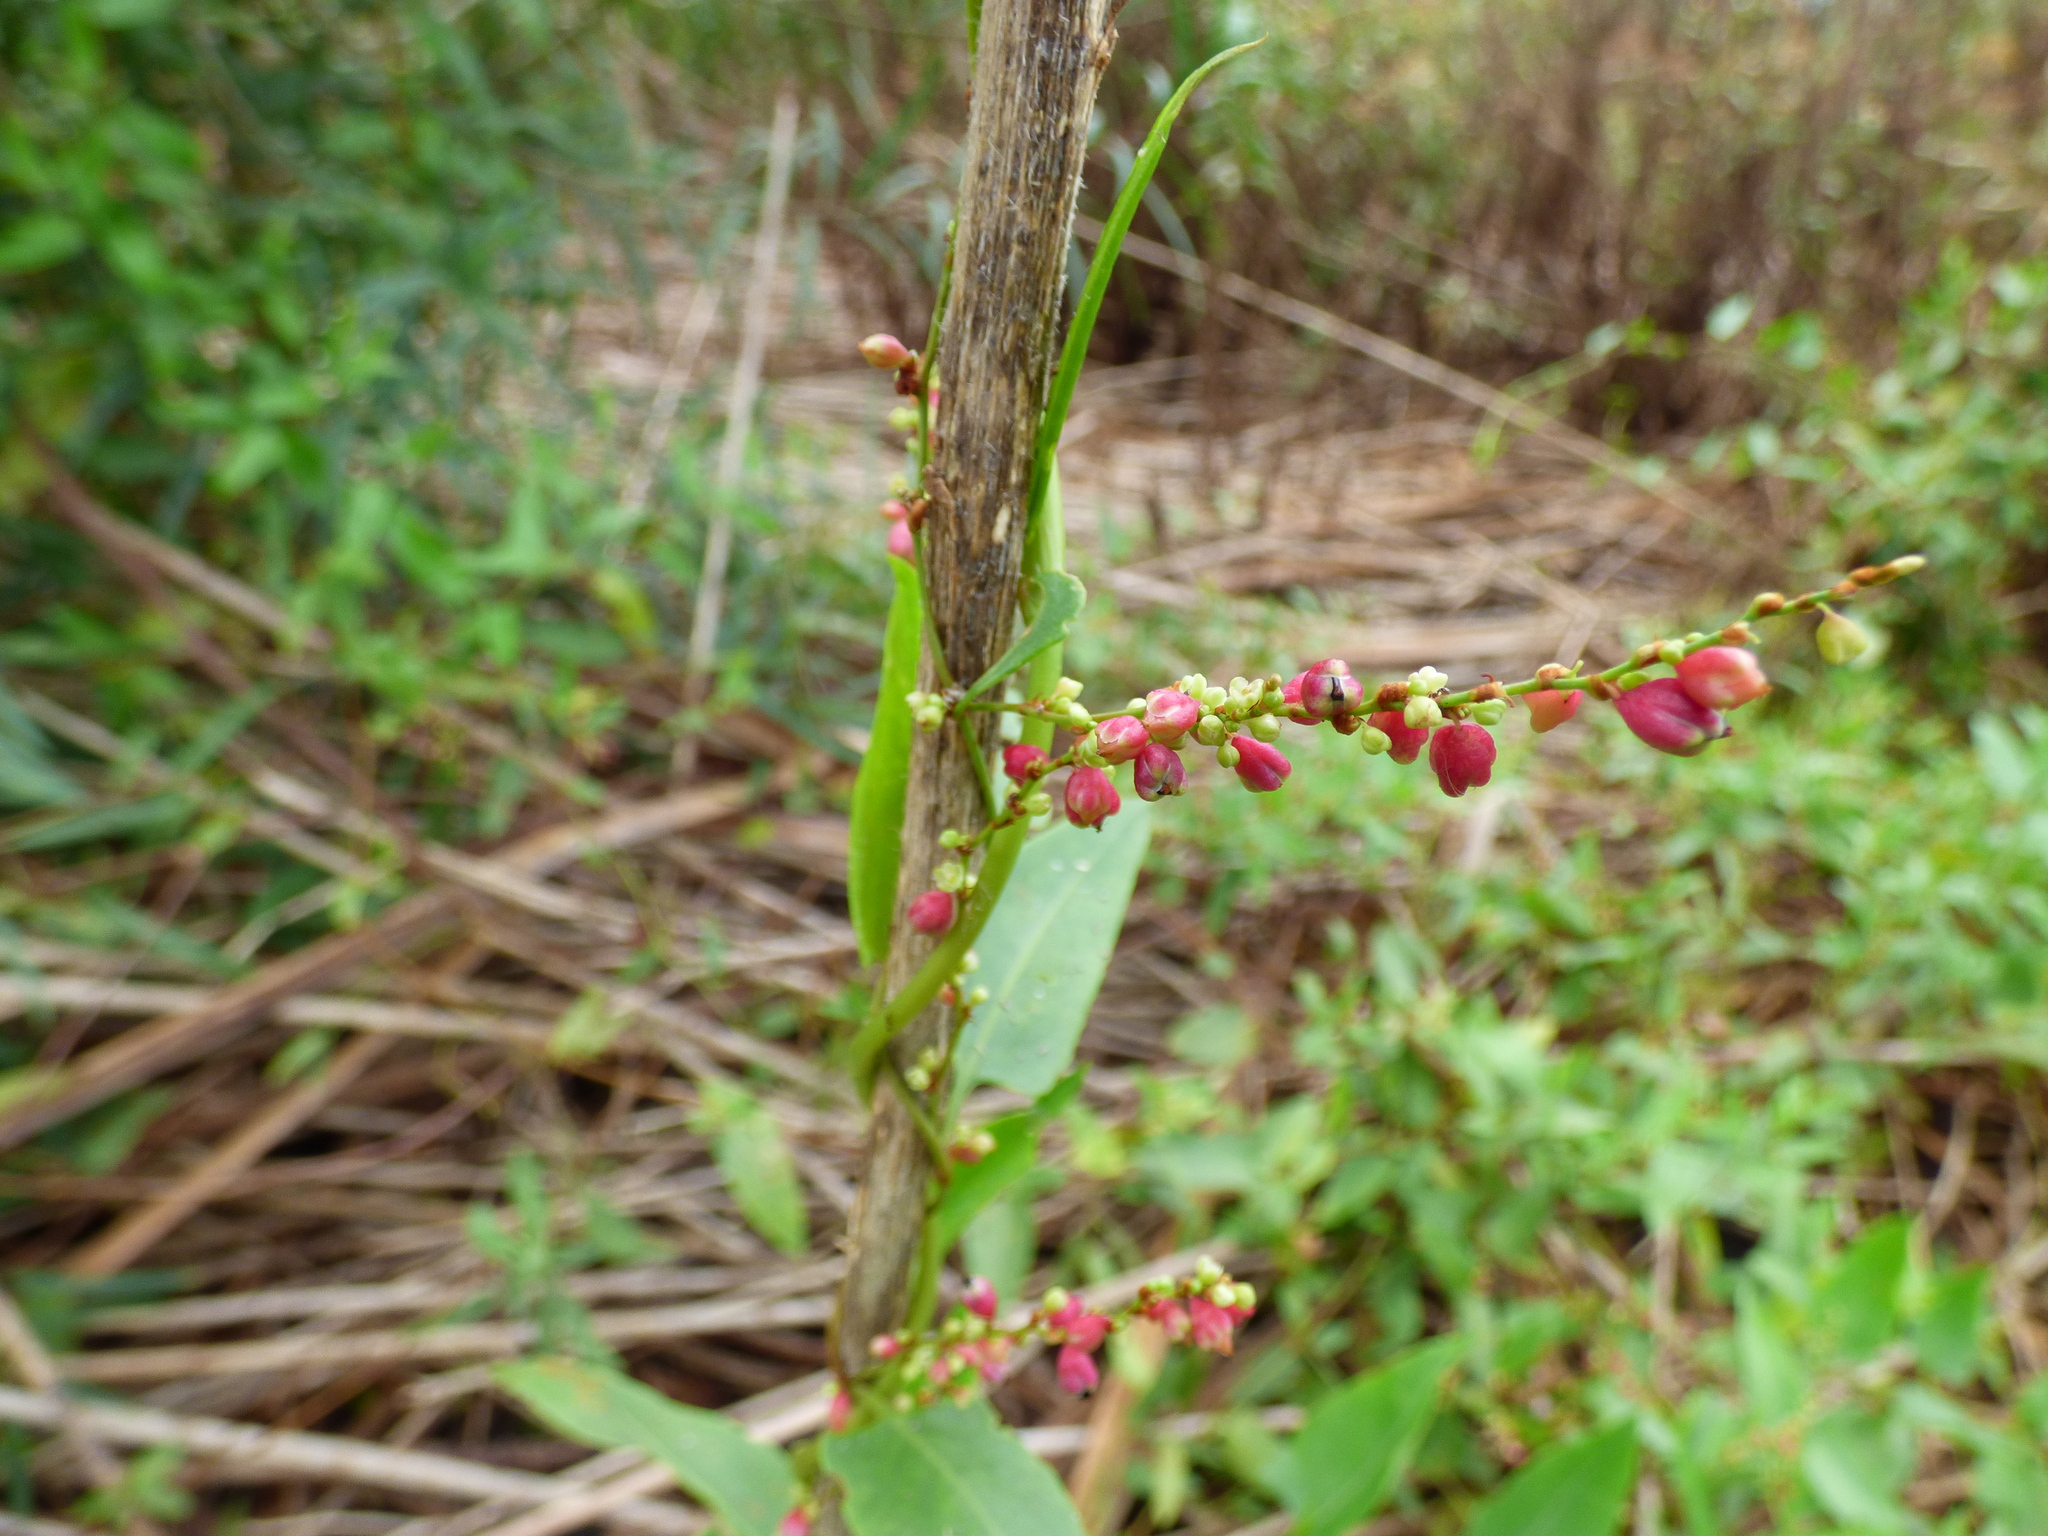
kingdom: Plantae
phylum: Tracheophyta
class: Magnoliopsida
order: Caryophyllales
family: Polygonaceae
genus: Muehlenbeckia
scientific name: Muehlenbeckia sagittifolia
